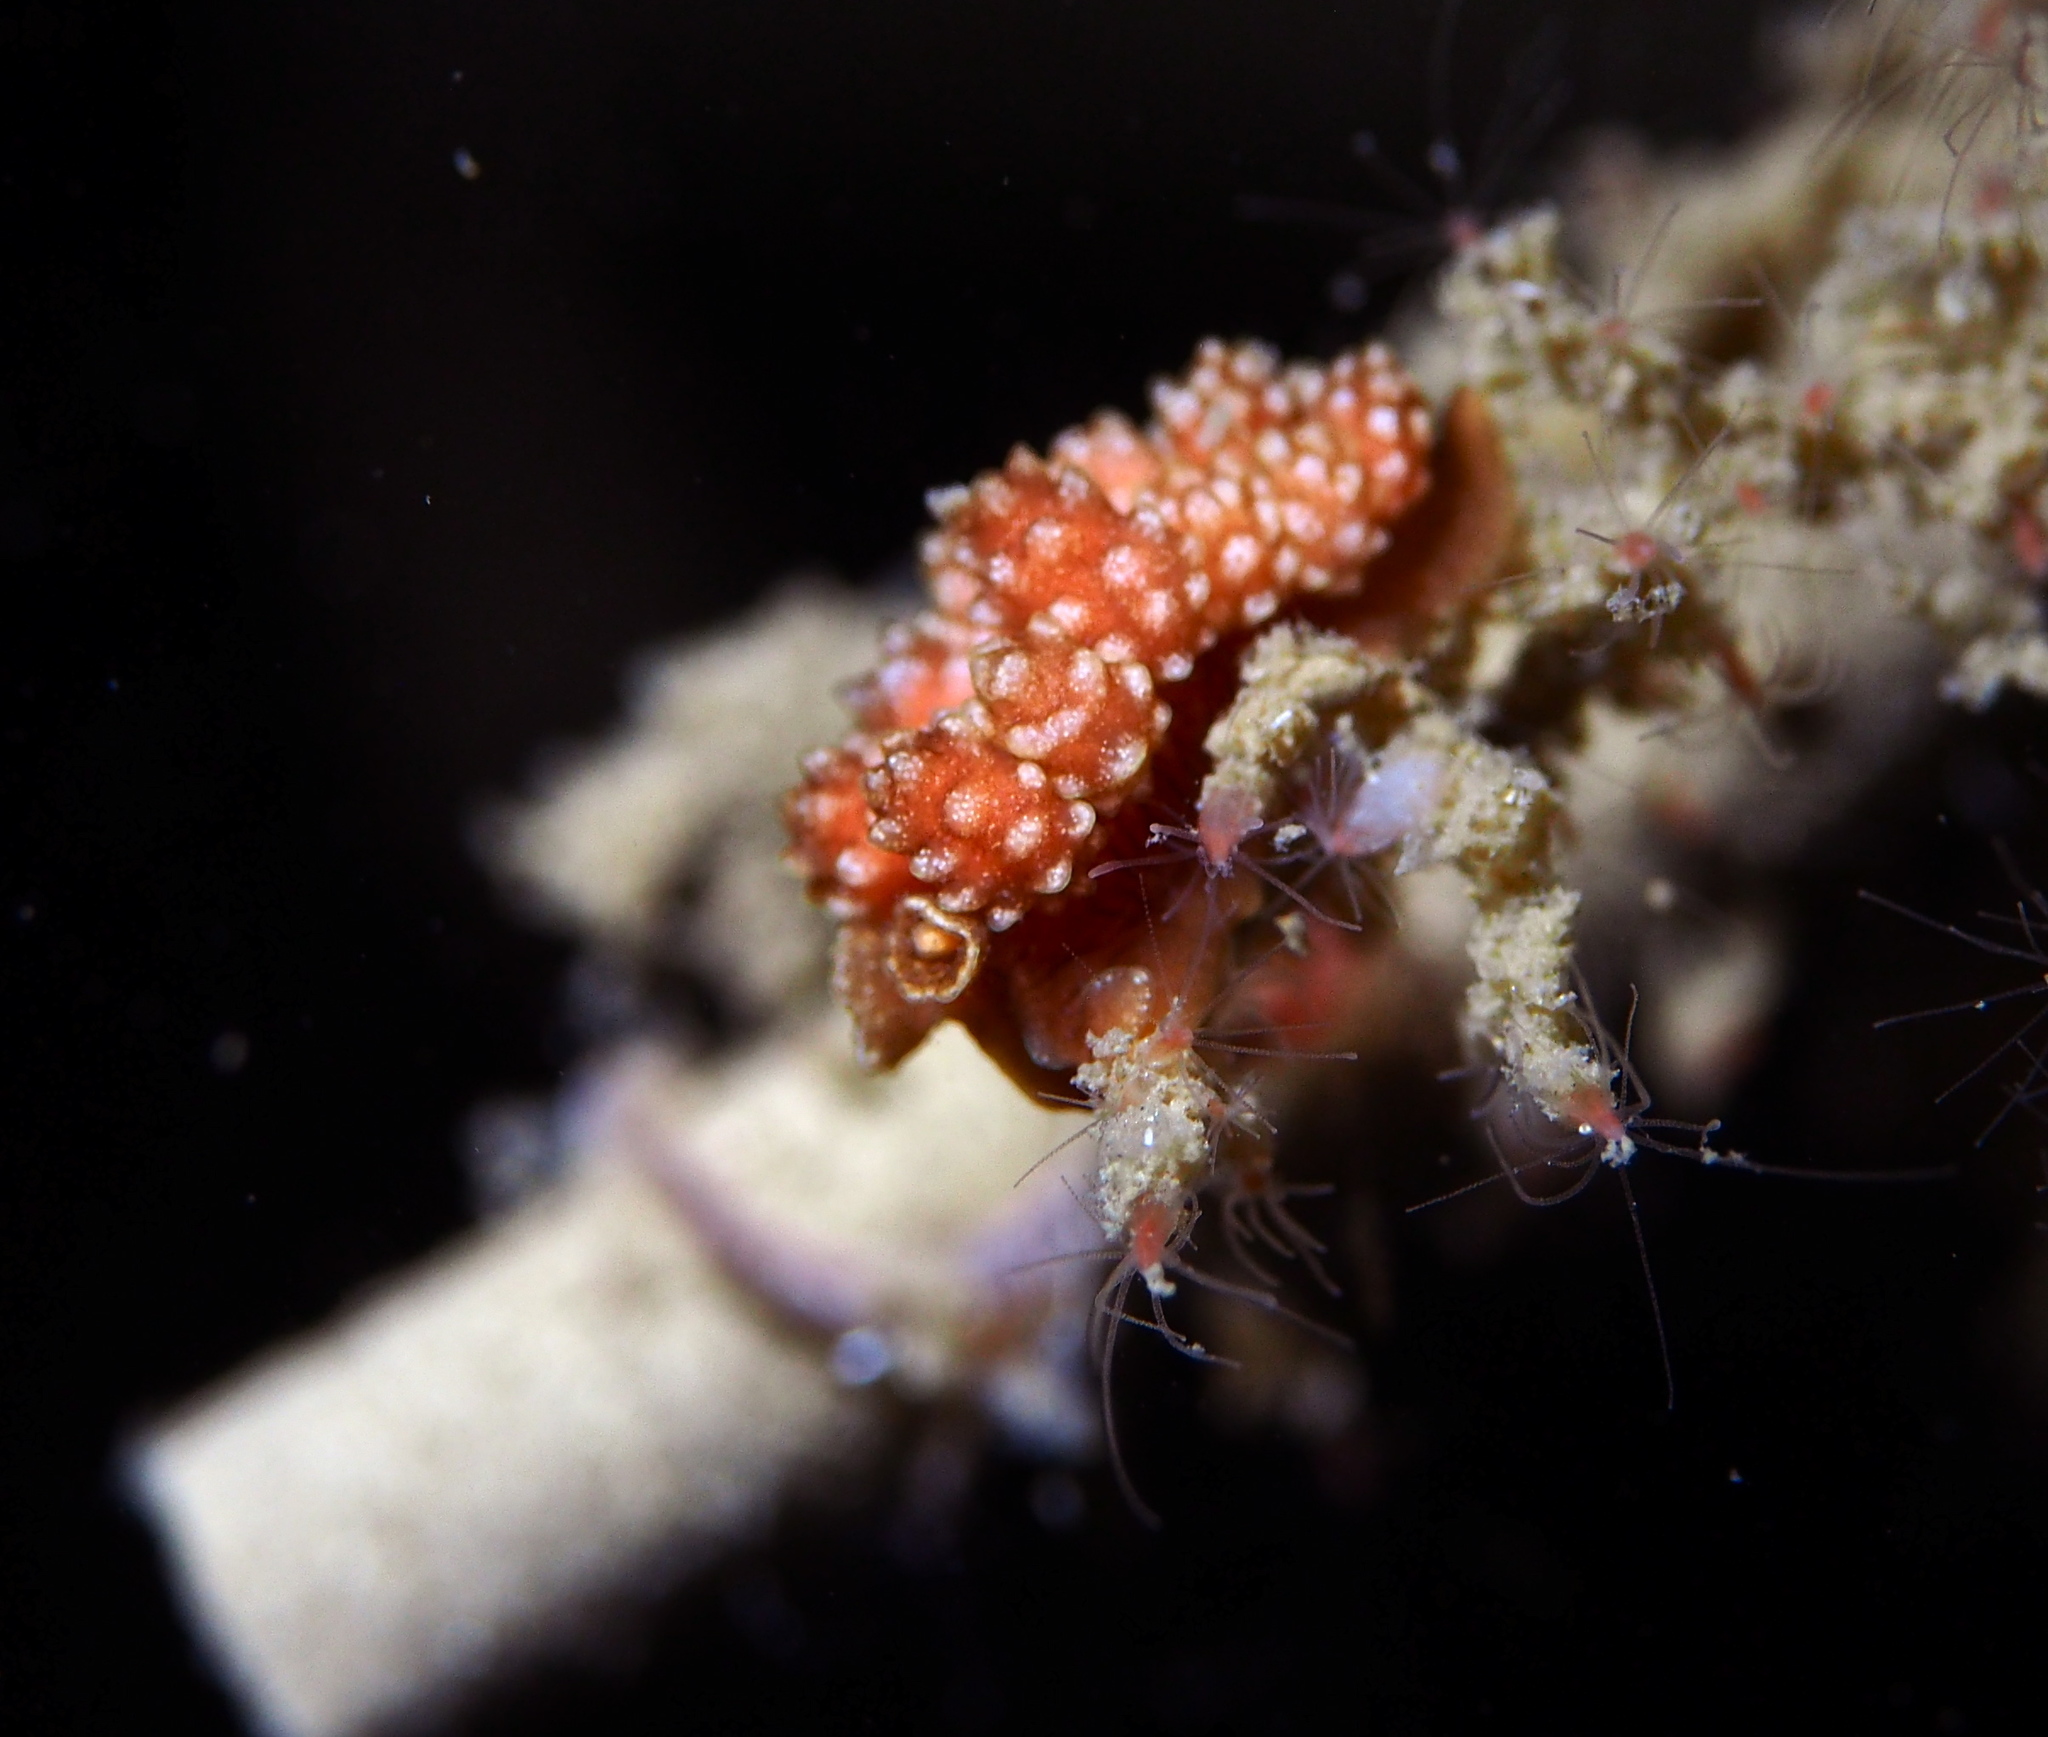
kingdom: Animalia
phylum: Mollusca
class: Gastropoda
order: Nudibranchia
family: Dotidae
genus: Doto
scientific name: Doto fragilis
